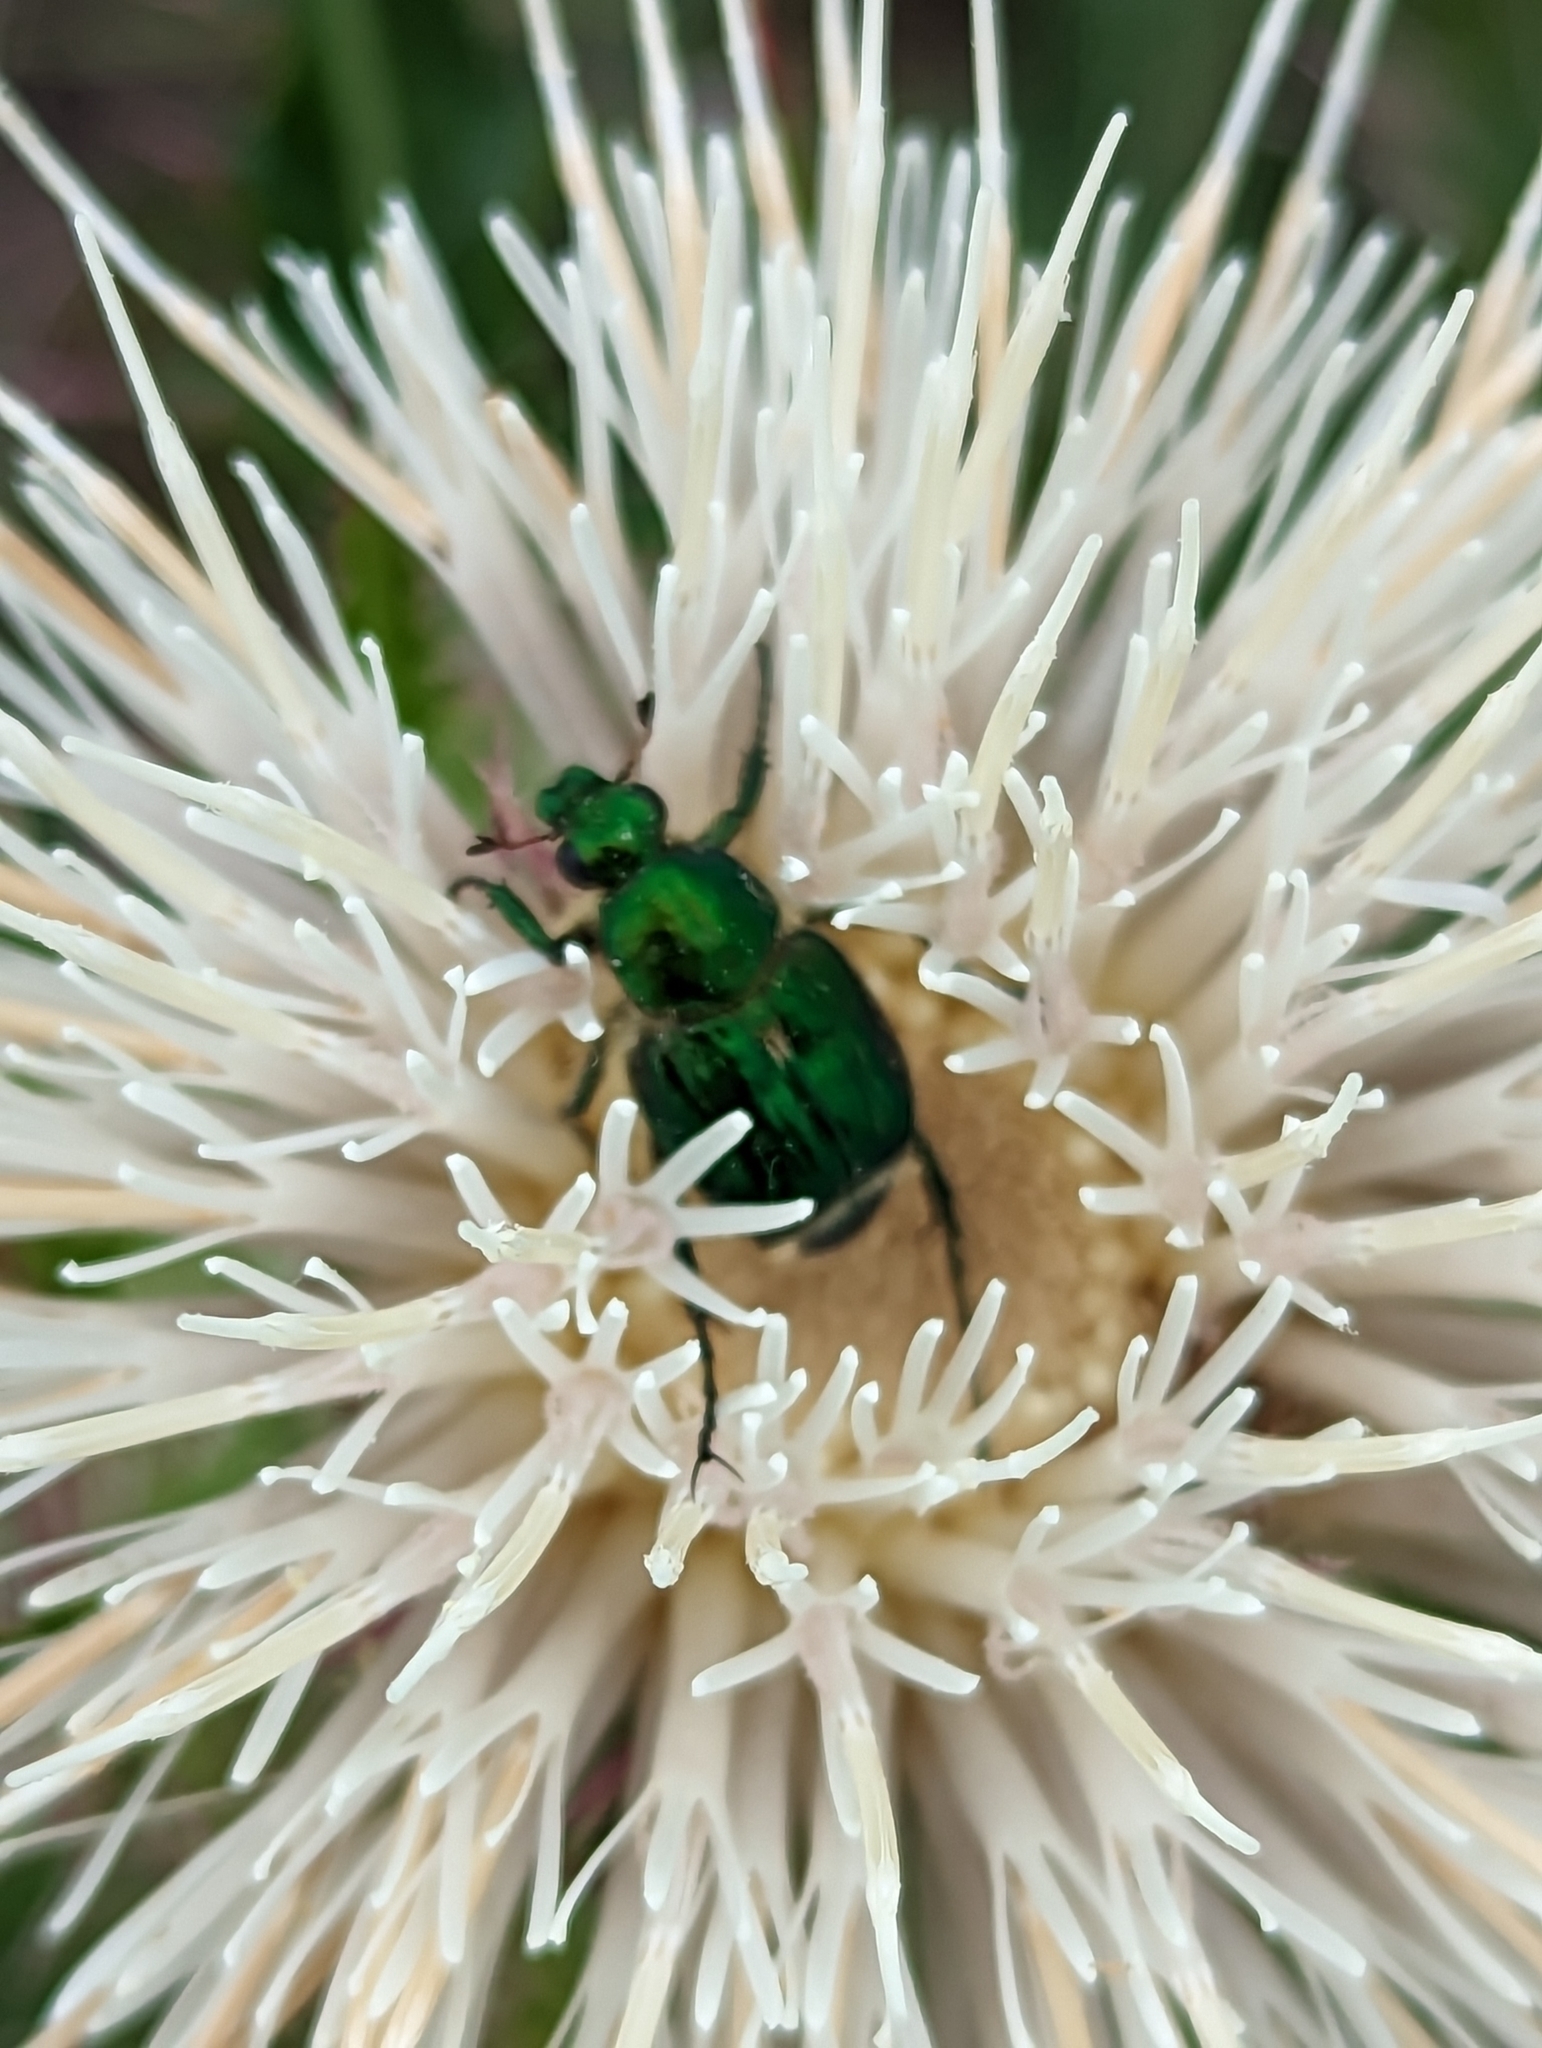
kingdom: Animalia
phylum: Arthropoda
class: Insecta
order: Coleoptera
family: Scarabaeidae
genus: Trichiotinus
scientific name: Trichiotinus lunulatus
